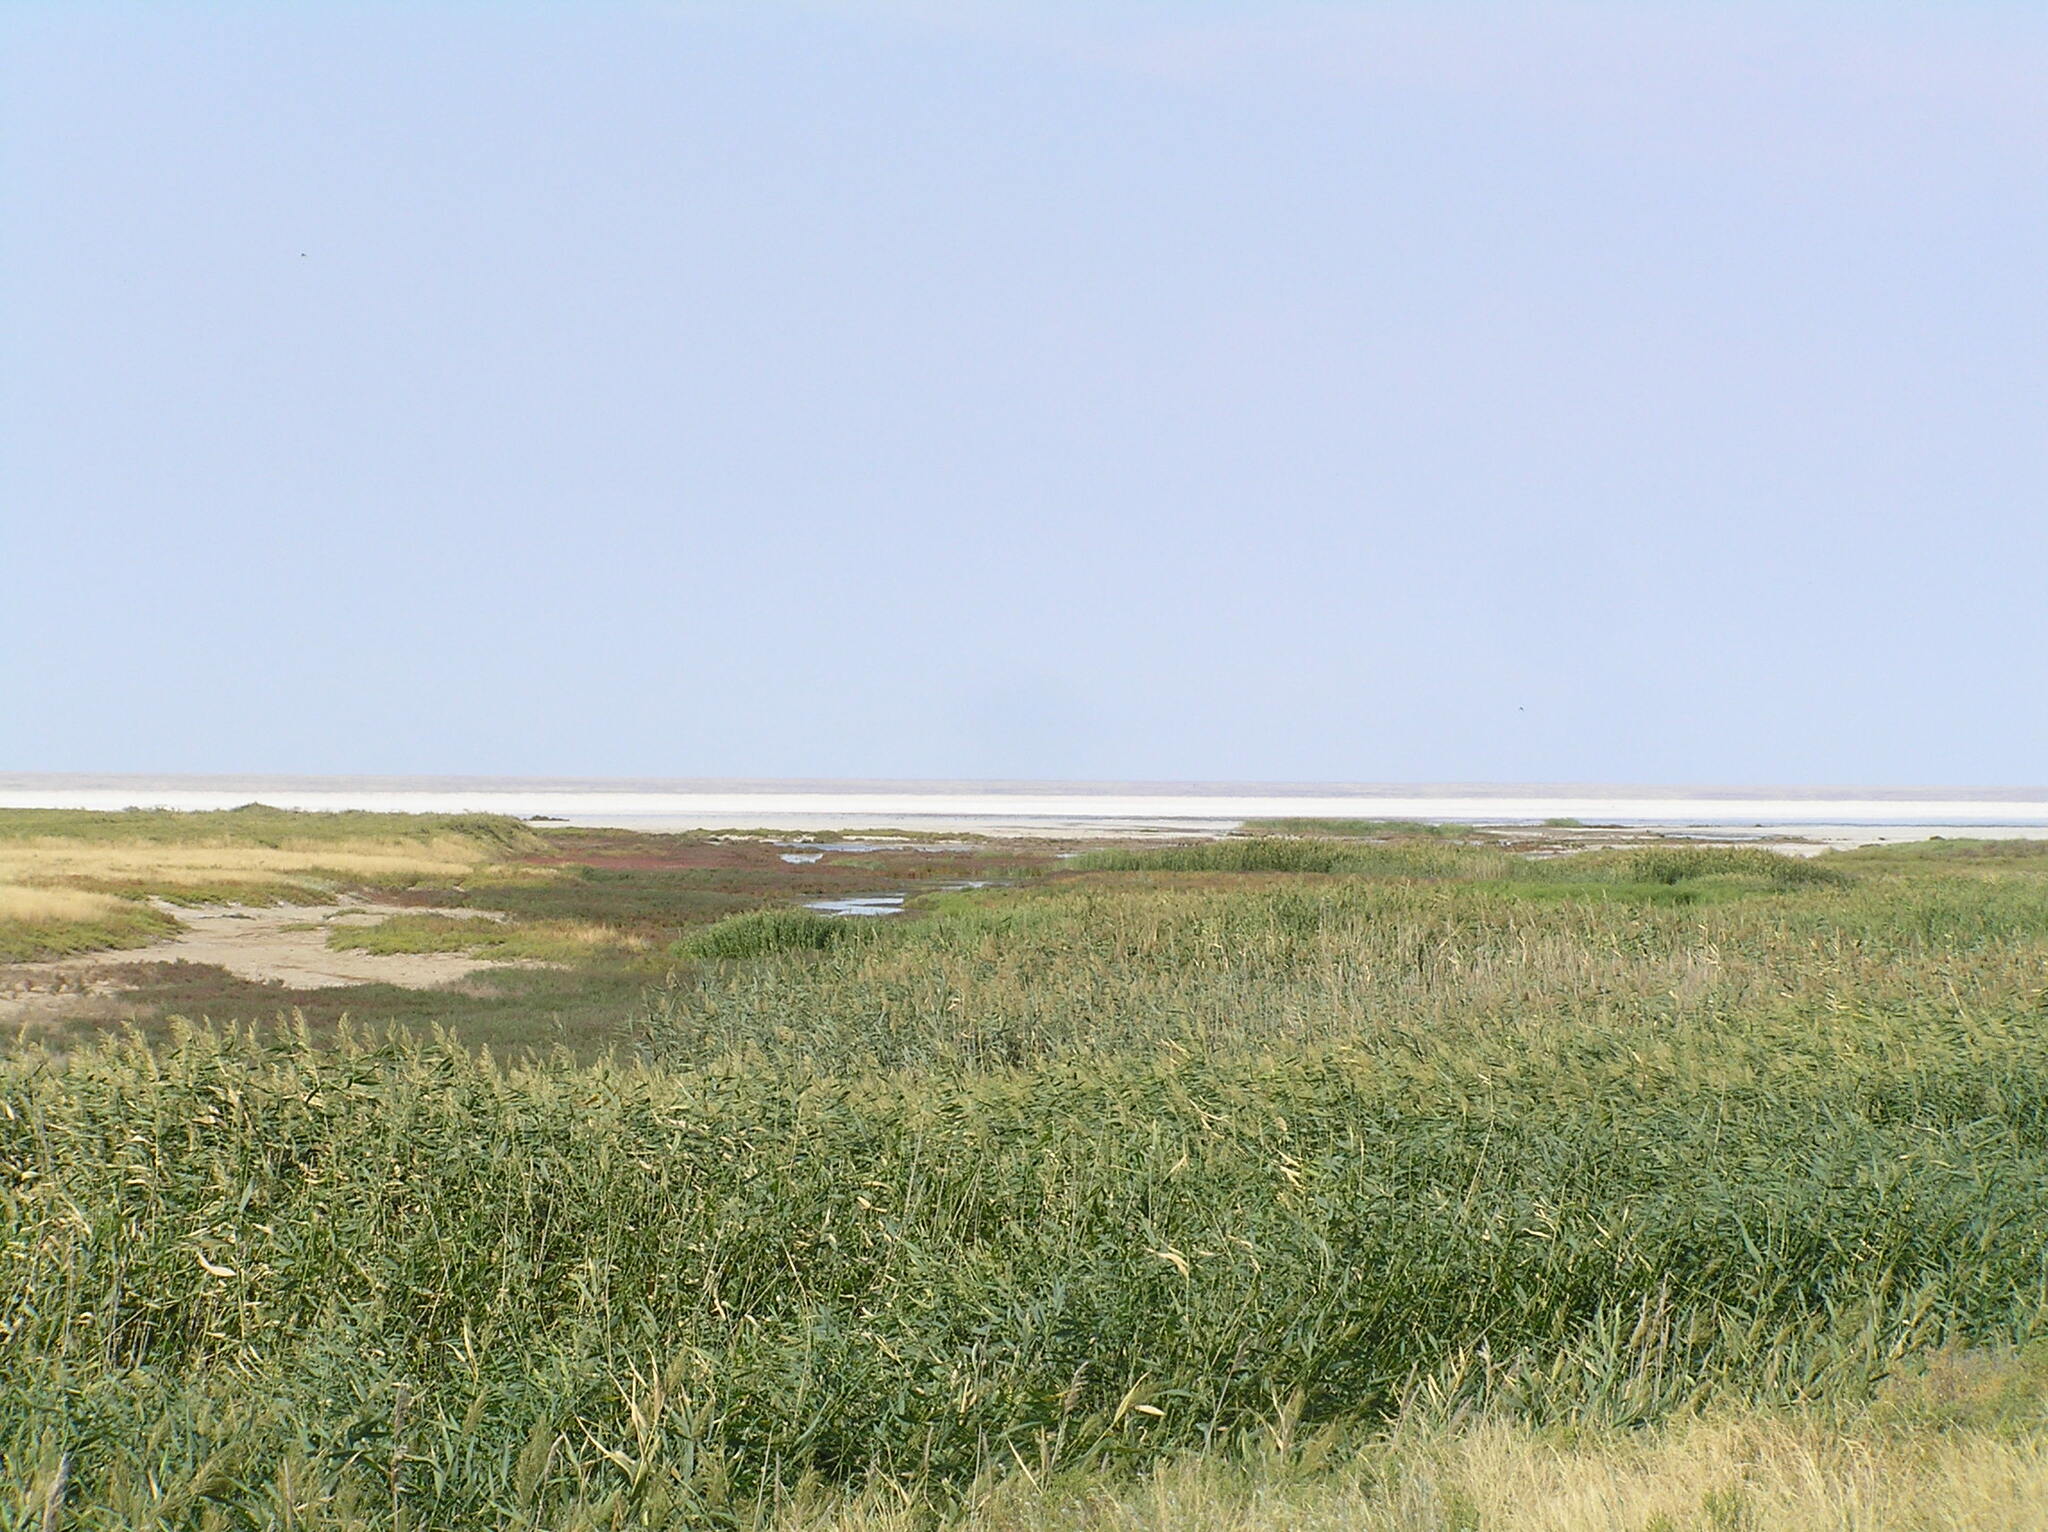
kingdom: Plantae
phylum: Tracheophyta
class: Liliopsida
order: Poales
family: Poaceae
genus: Phragmites
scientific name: Phragmites australis
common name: Common reed
